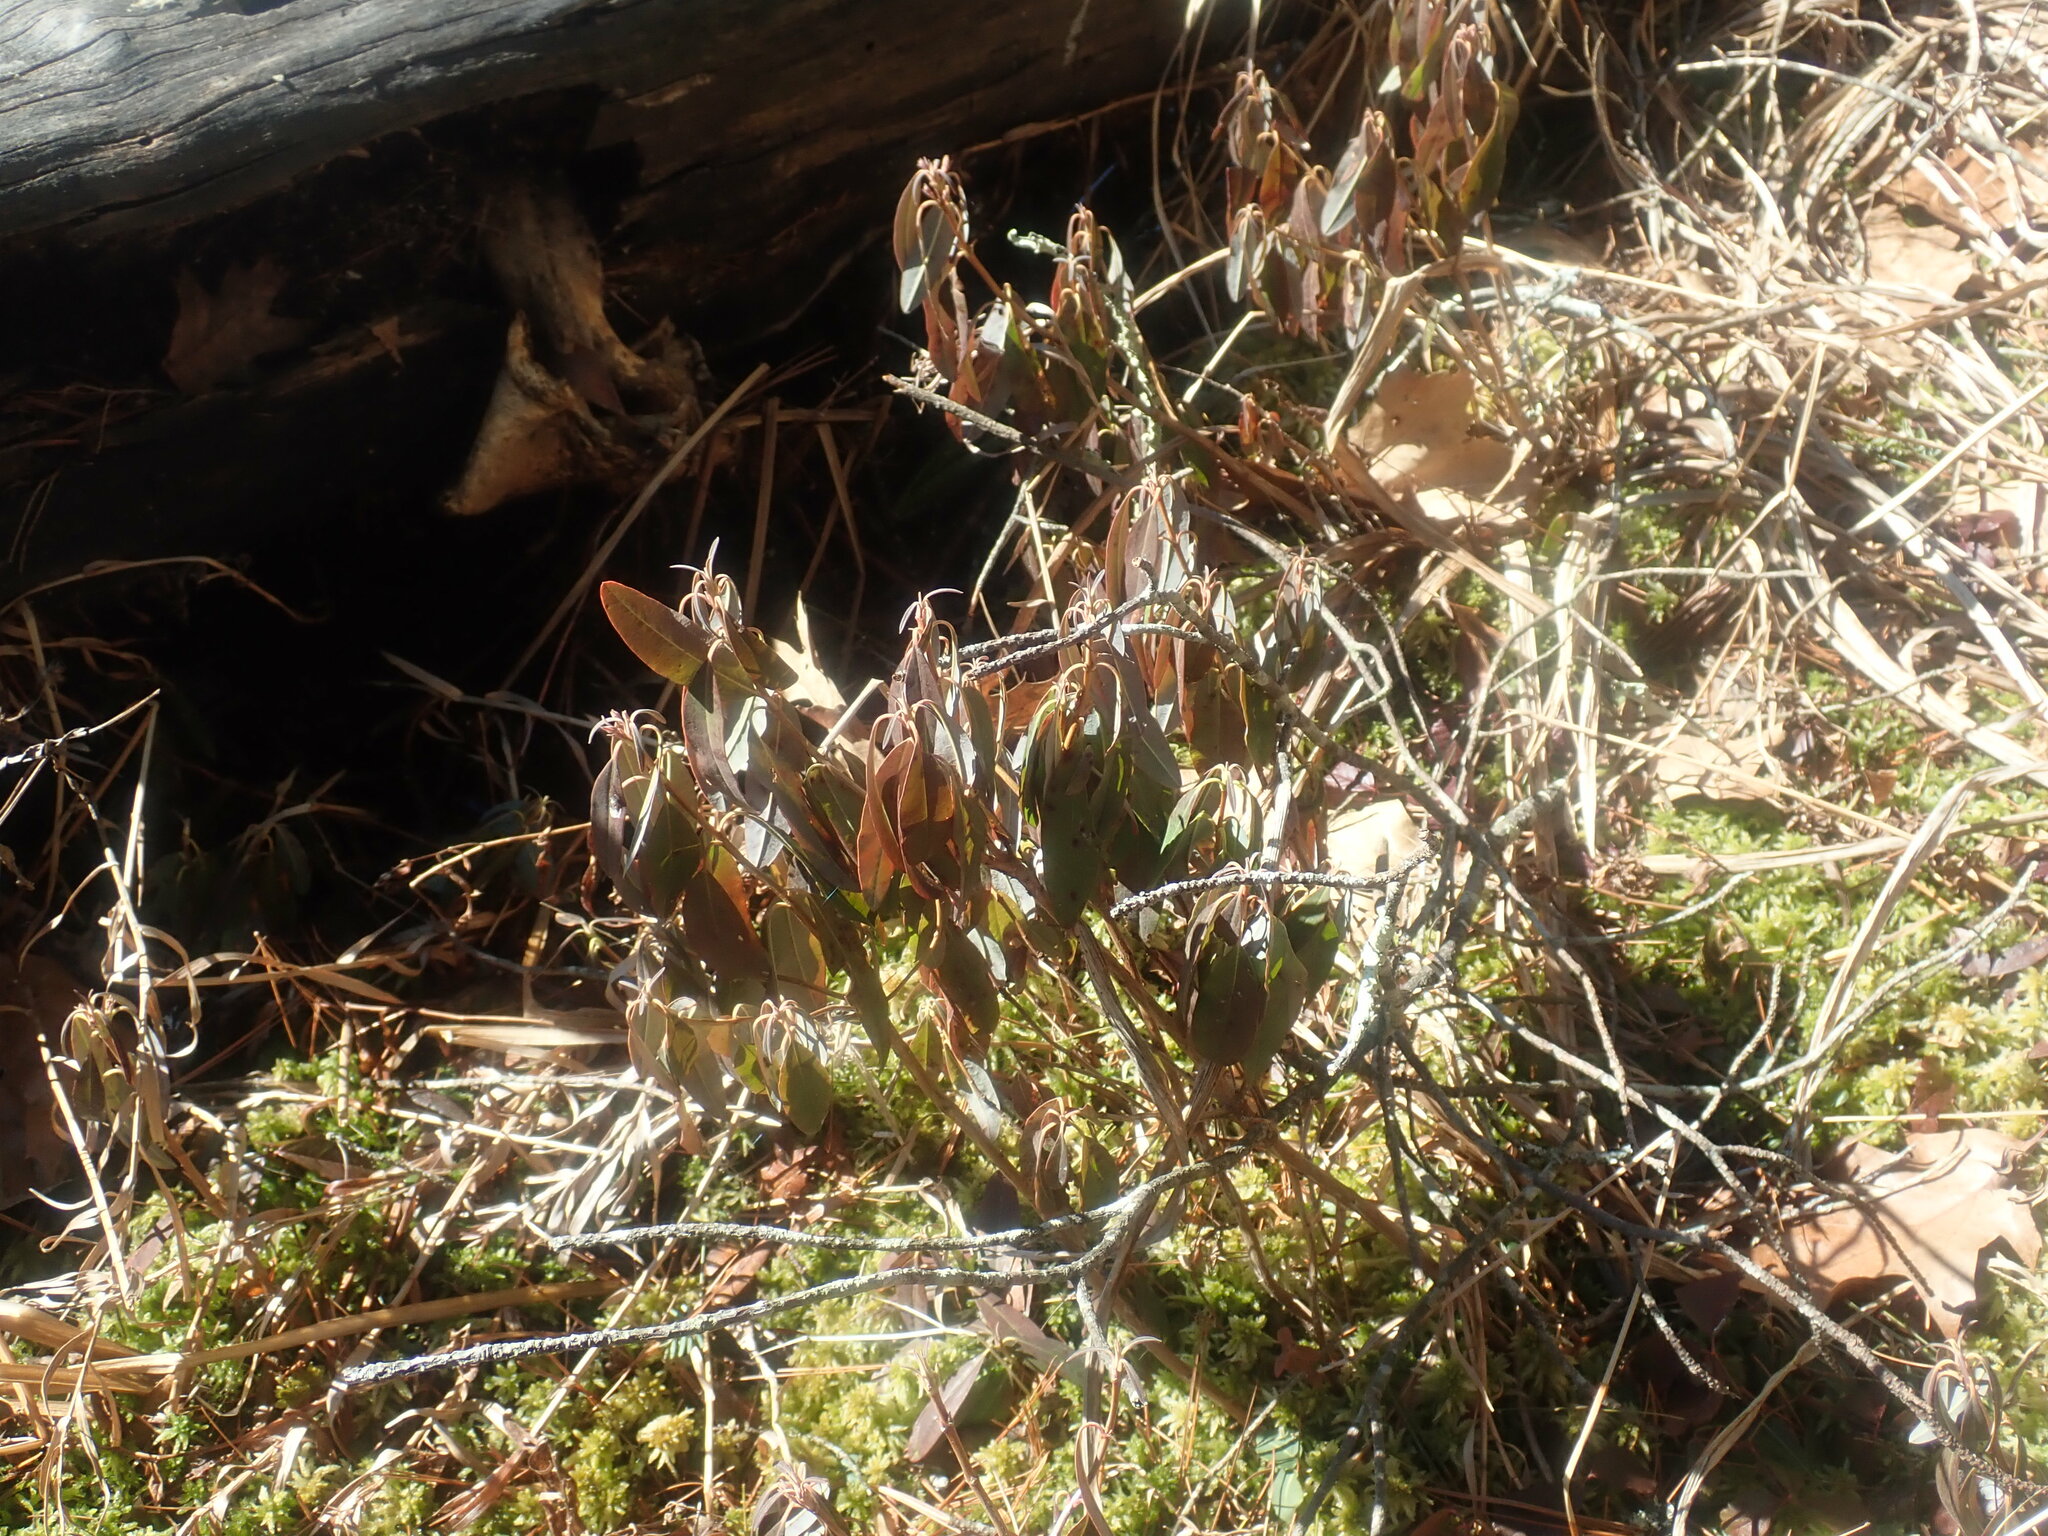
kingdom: Plantae
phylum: Tracheophyta
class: Magnoliopsida
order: Ericales
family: Ericaceae
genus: Kalmia
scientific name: Kalmia angustifolia
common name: Sheep-laurel
